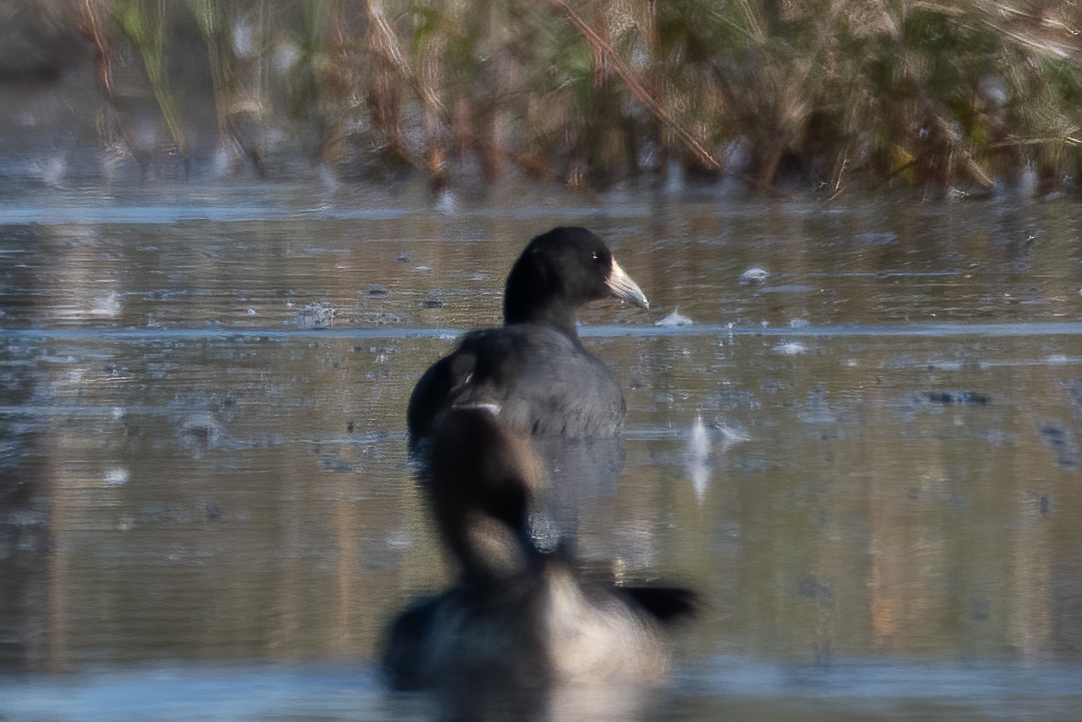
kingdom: Animalia
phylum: Chordata
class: Aves
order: Gruiformes
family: Rallidae
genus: Fulica
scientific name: Fulica americana
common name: American coot
